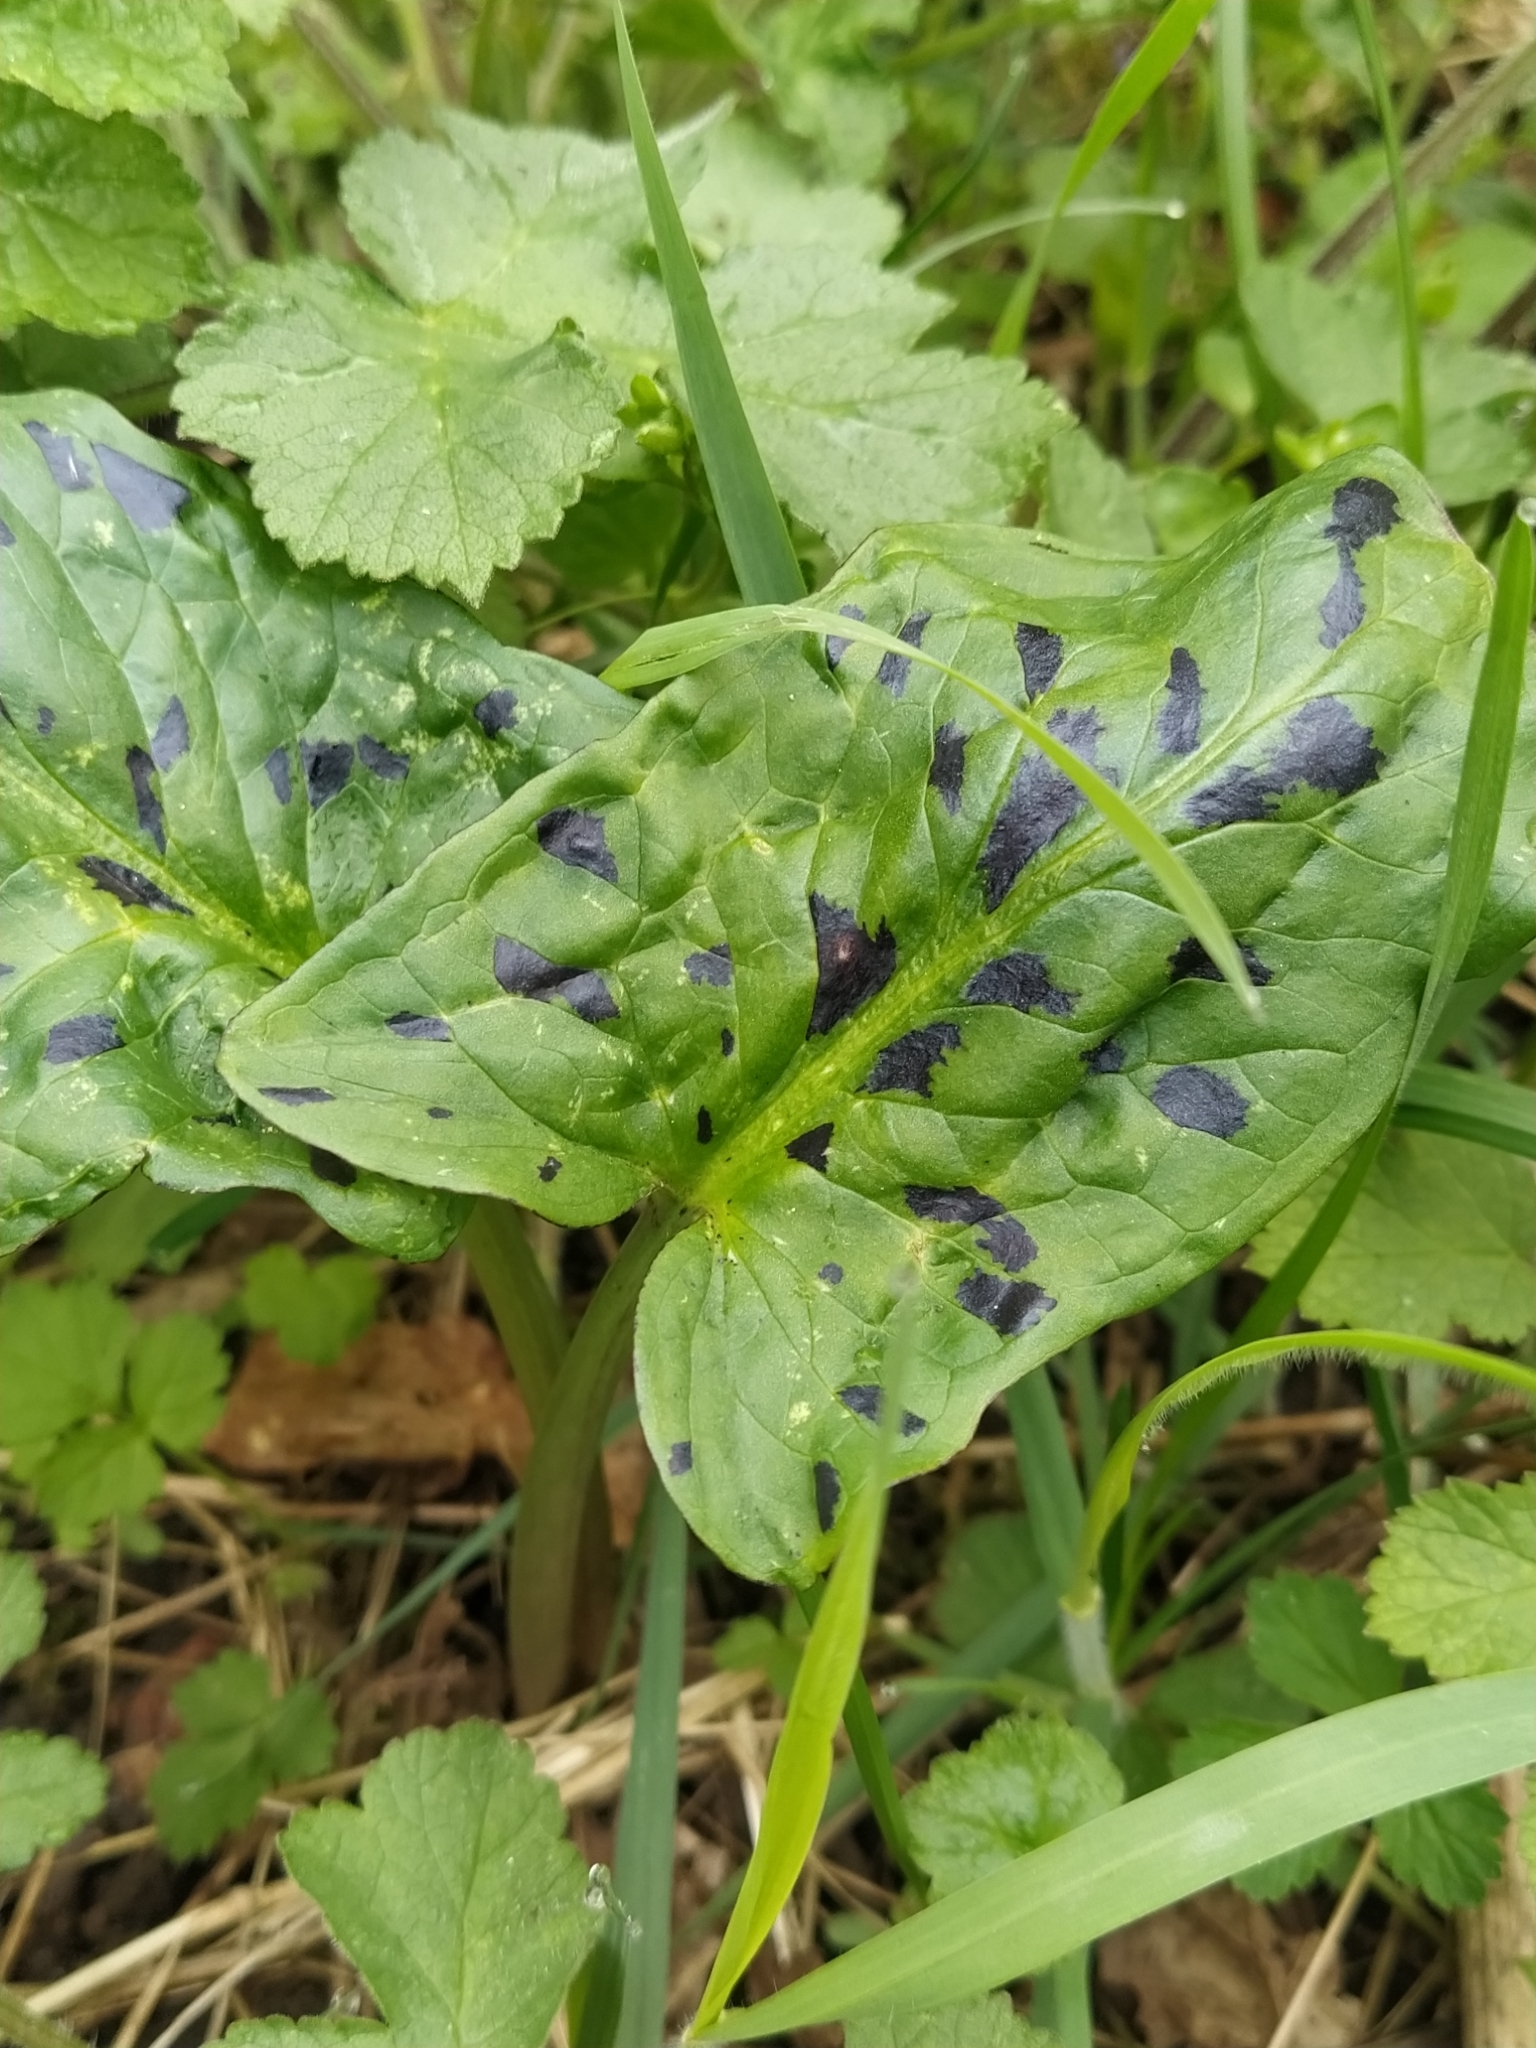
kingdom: Plantae
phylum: Tracheophyta
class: Liliopsida
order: Alismatales
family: Araceae
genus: Arum
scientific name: Arum maculatum
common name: Lords-and-ladies
